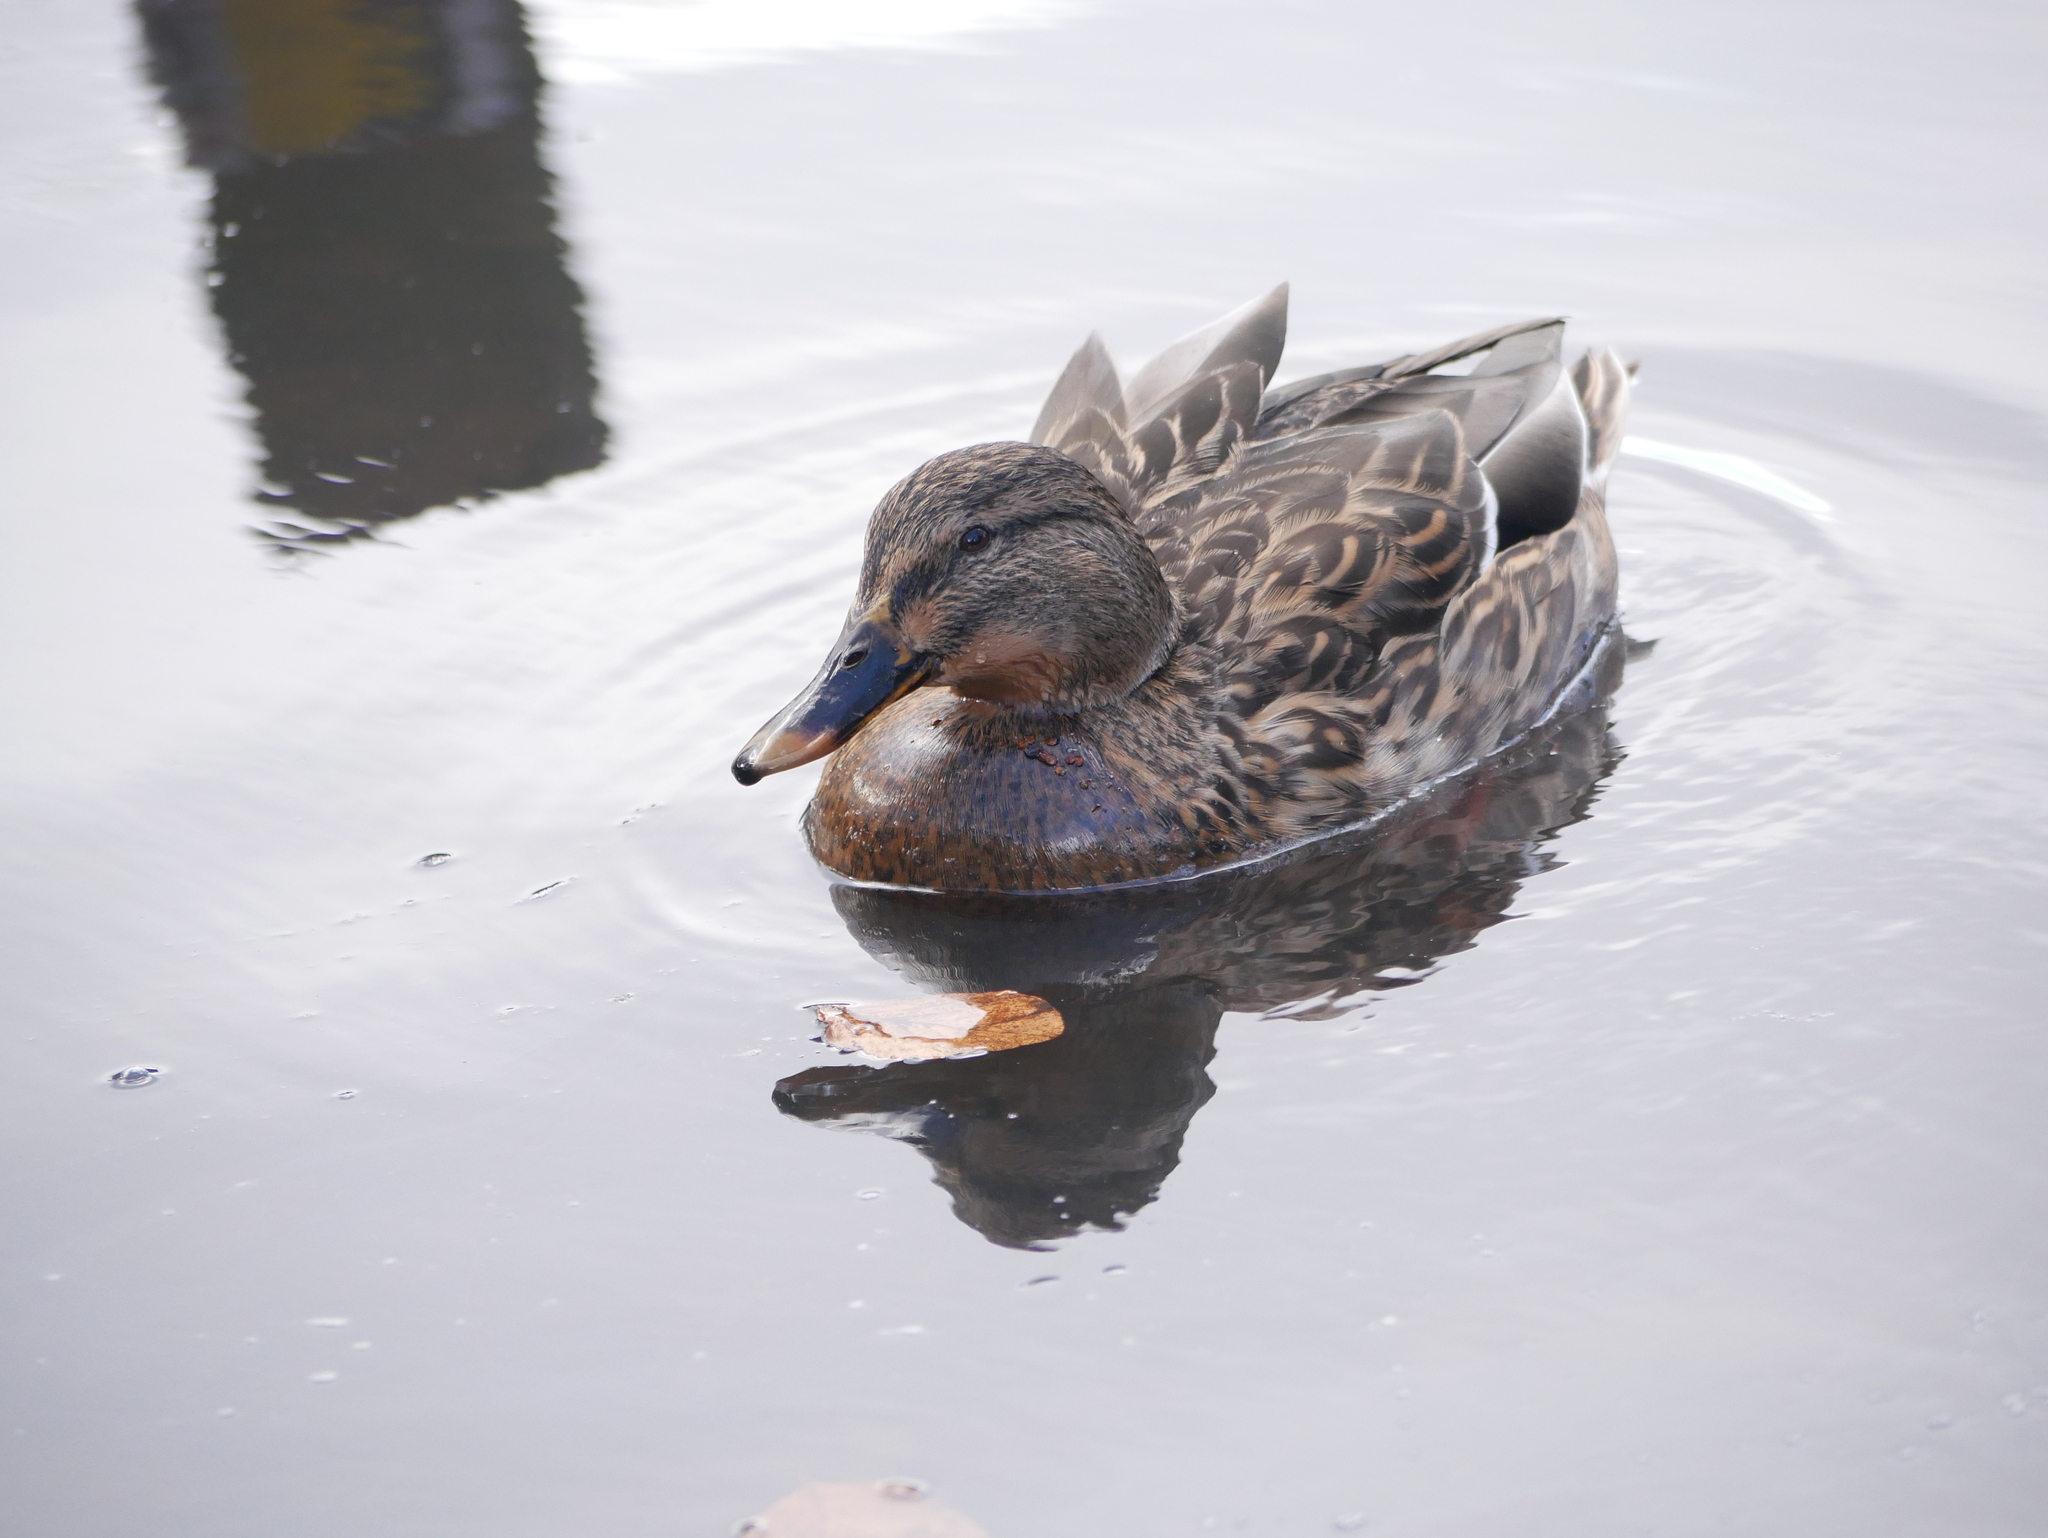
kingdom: Animalia
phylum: Chordata
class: Aves
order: Anseriformes
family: Anatidae
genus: Anas
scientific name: Anas platyrhynchos
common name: Mallard
